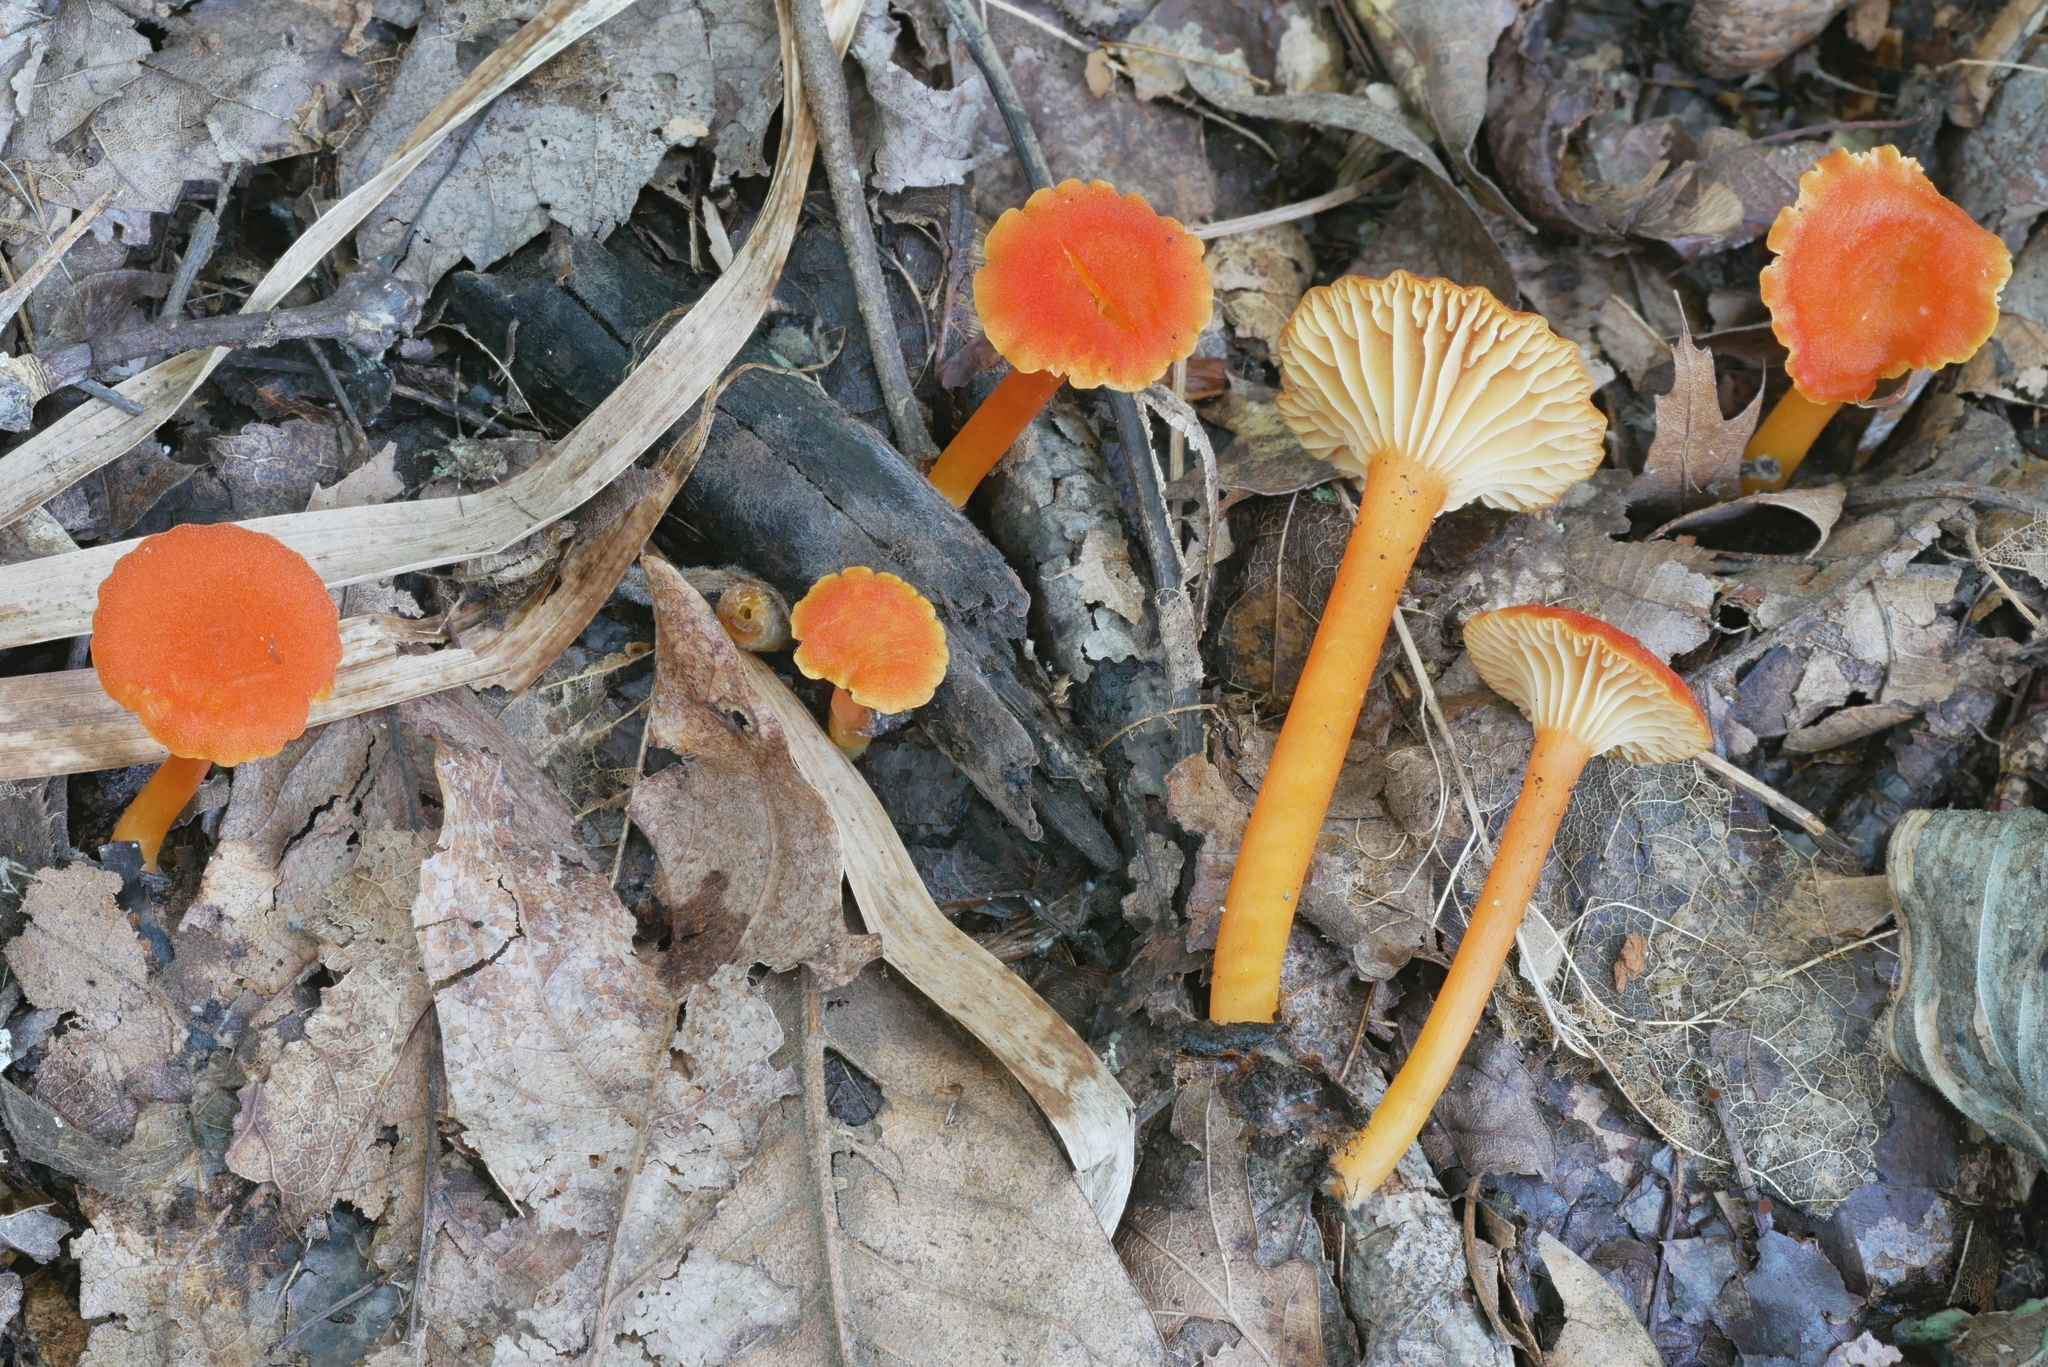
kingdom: Fungi
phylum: Basidiomycota
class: Agaricomycetes
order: Agaricales
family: Hygrophoraceae
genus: Hygrocybe
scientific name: Hygrocybe cantharellus
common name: Goblet waxcap
